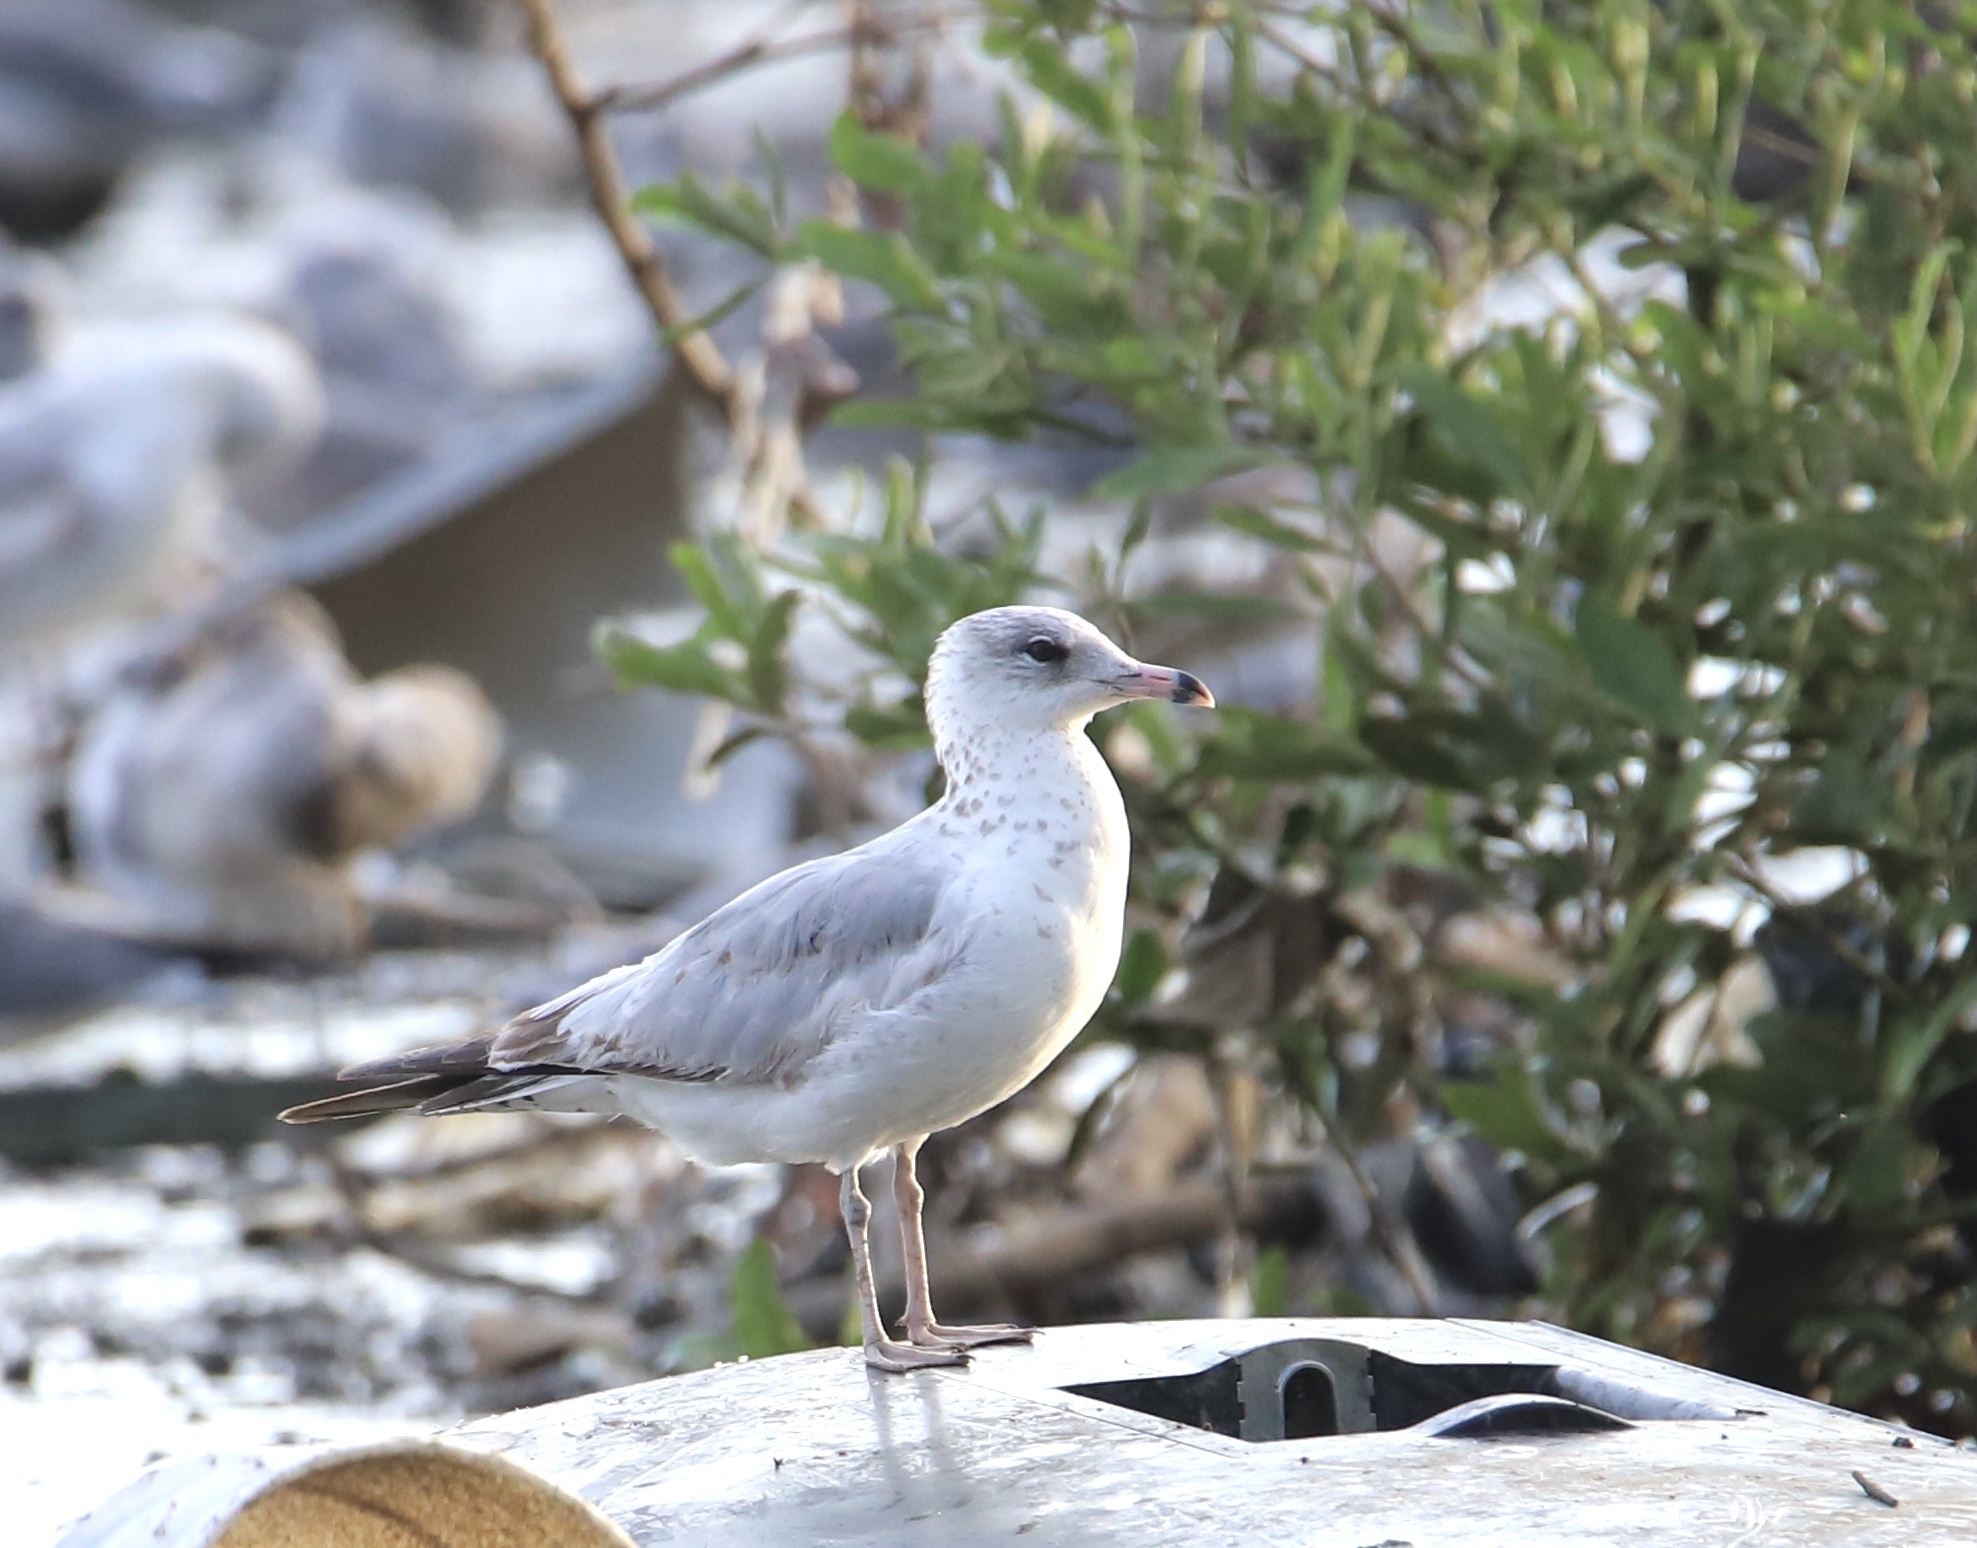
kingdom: Animalia
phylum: Chordata
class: Aves
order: Charadriiformes
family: Laridae
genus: Larus
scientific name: Larus delawarensis
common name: Ring-billed gull
